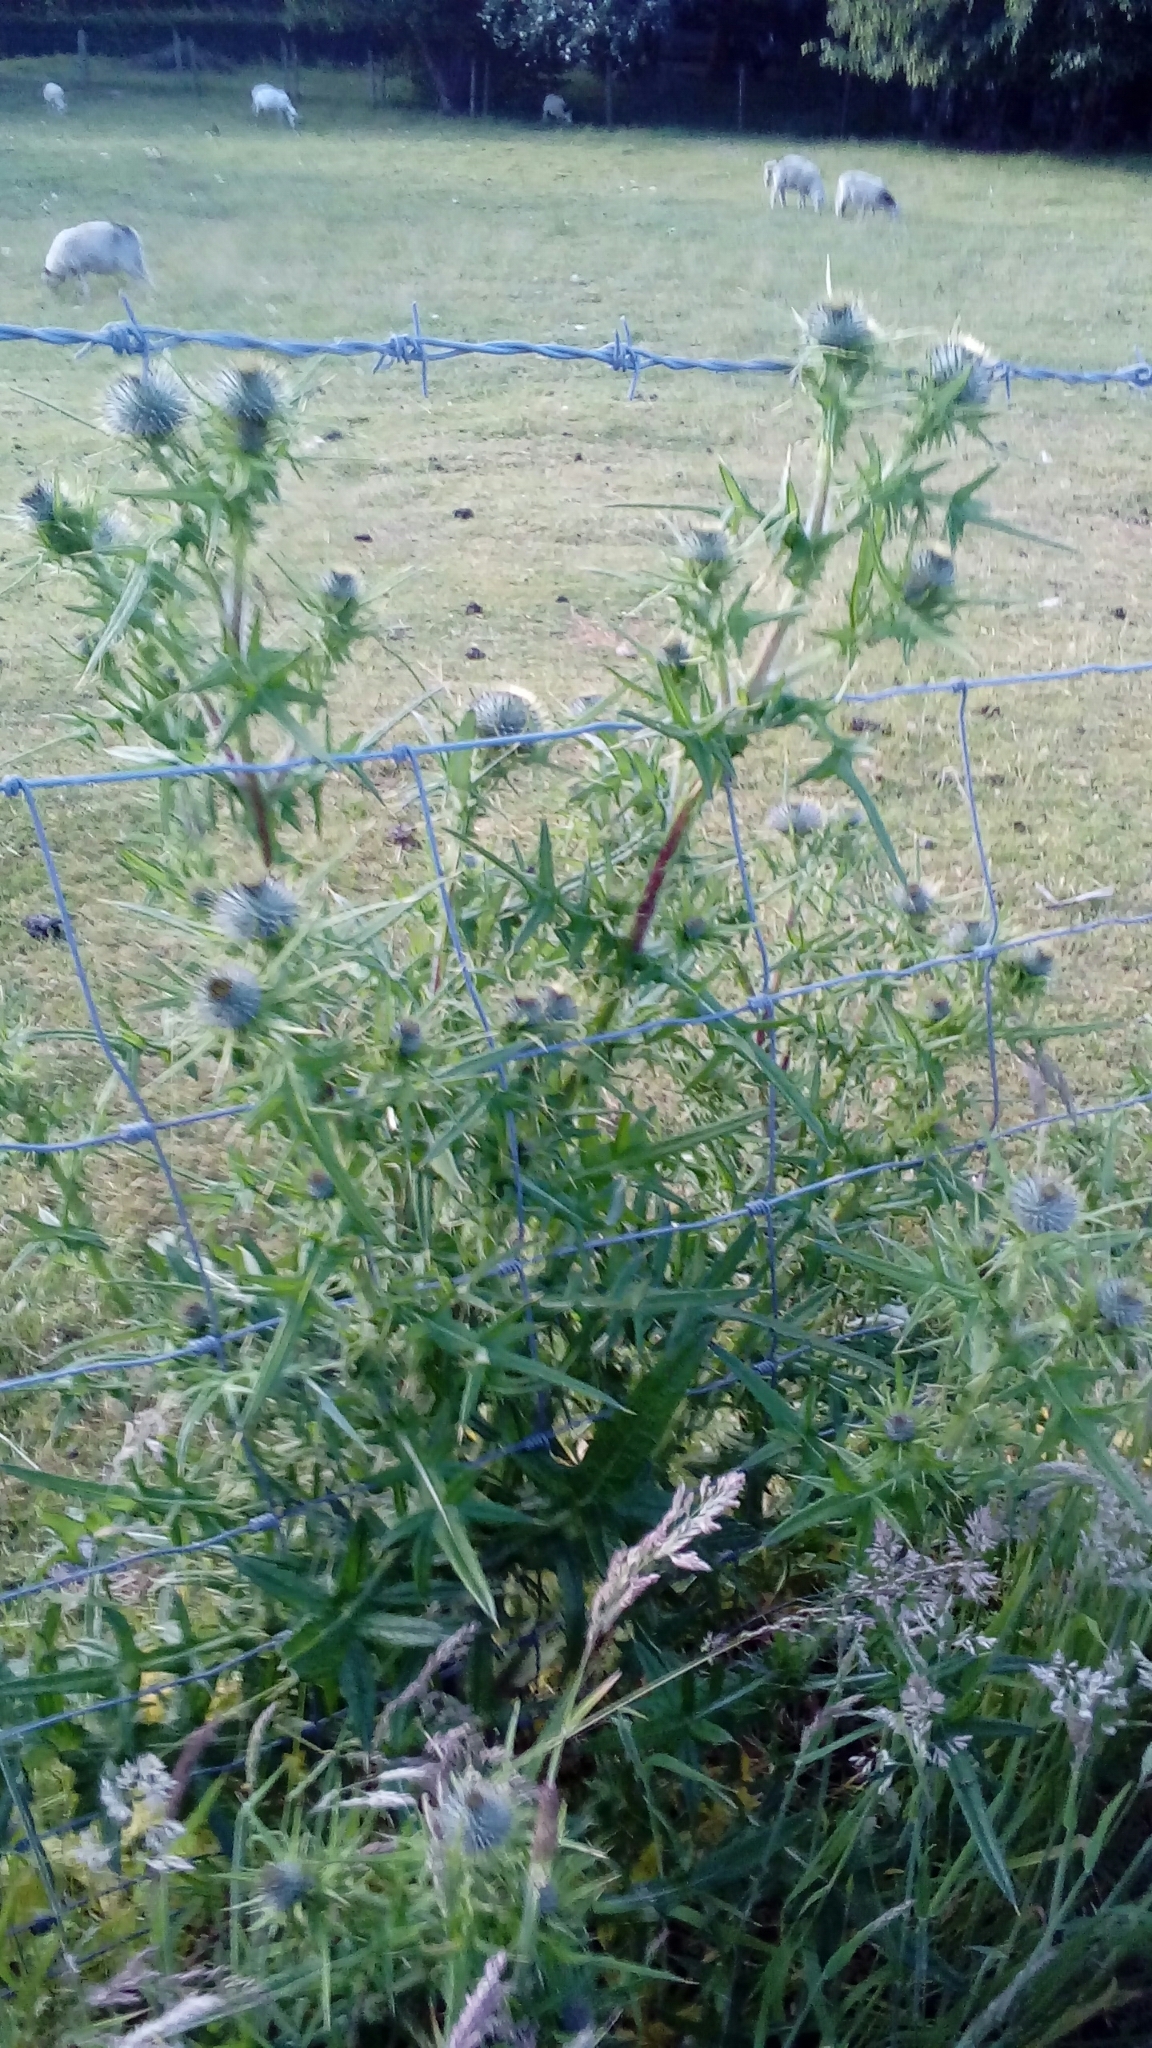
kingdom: Plantae
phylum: Tracheophyta
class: Magnoliopsida
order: Asterales
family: Asteraceae
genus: Cirsium
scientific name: Cirsium vulgare
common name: Bull thistle
